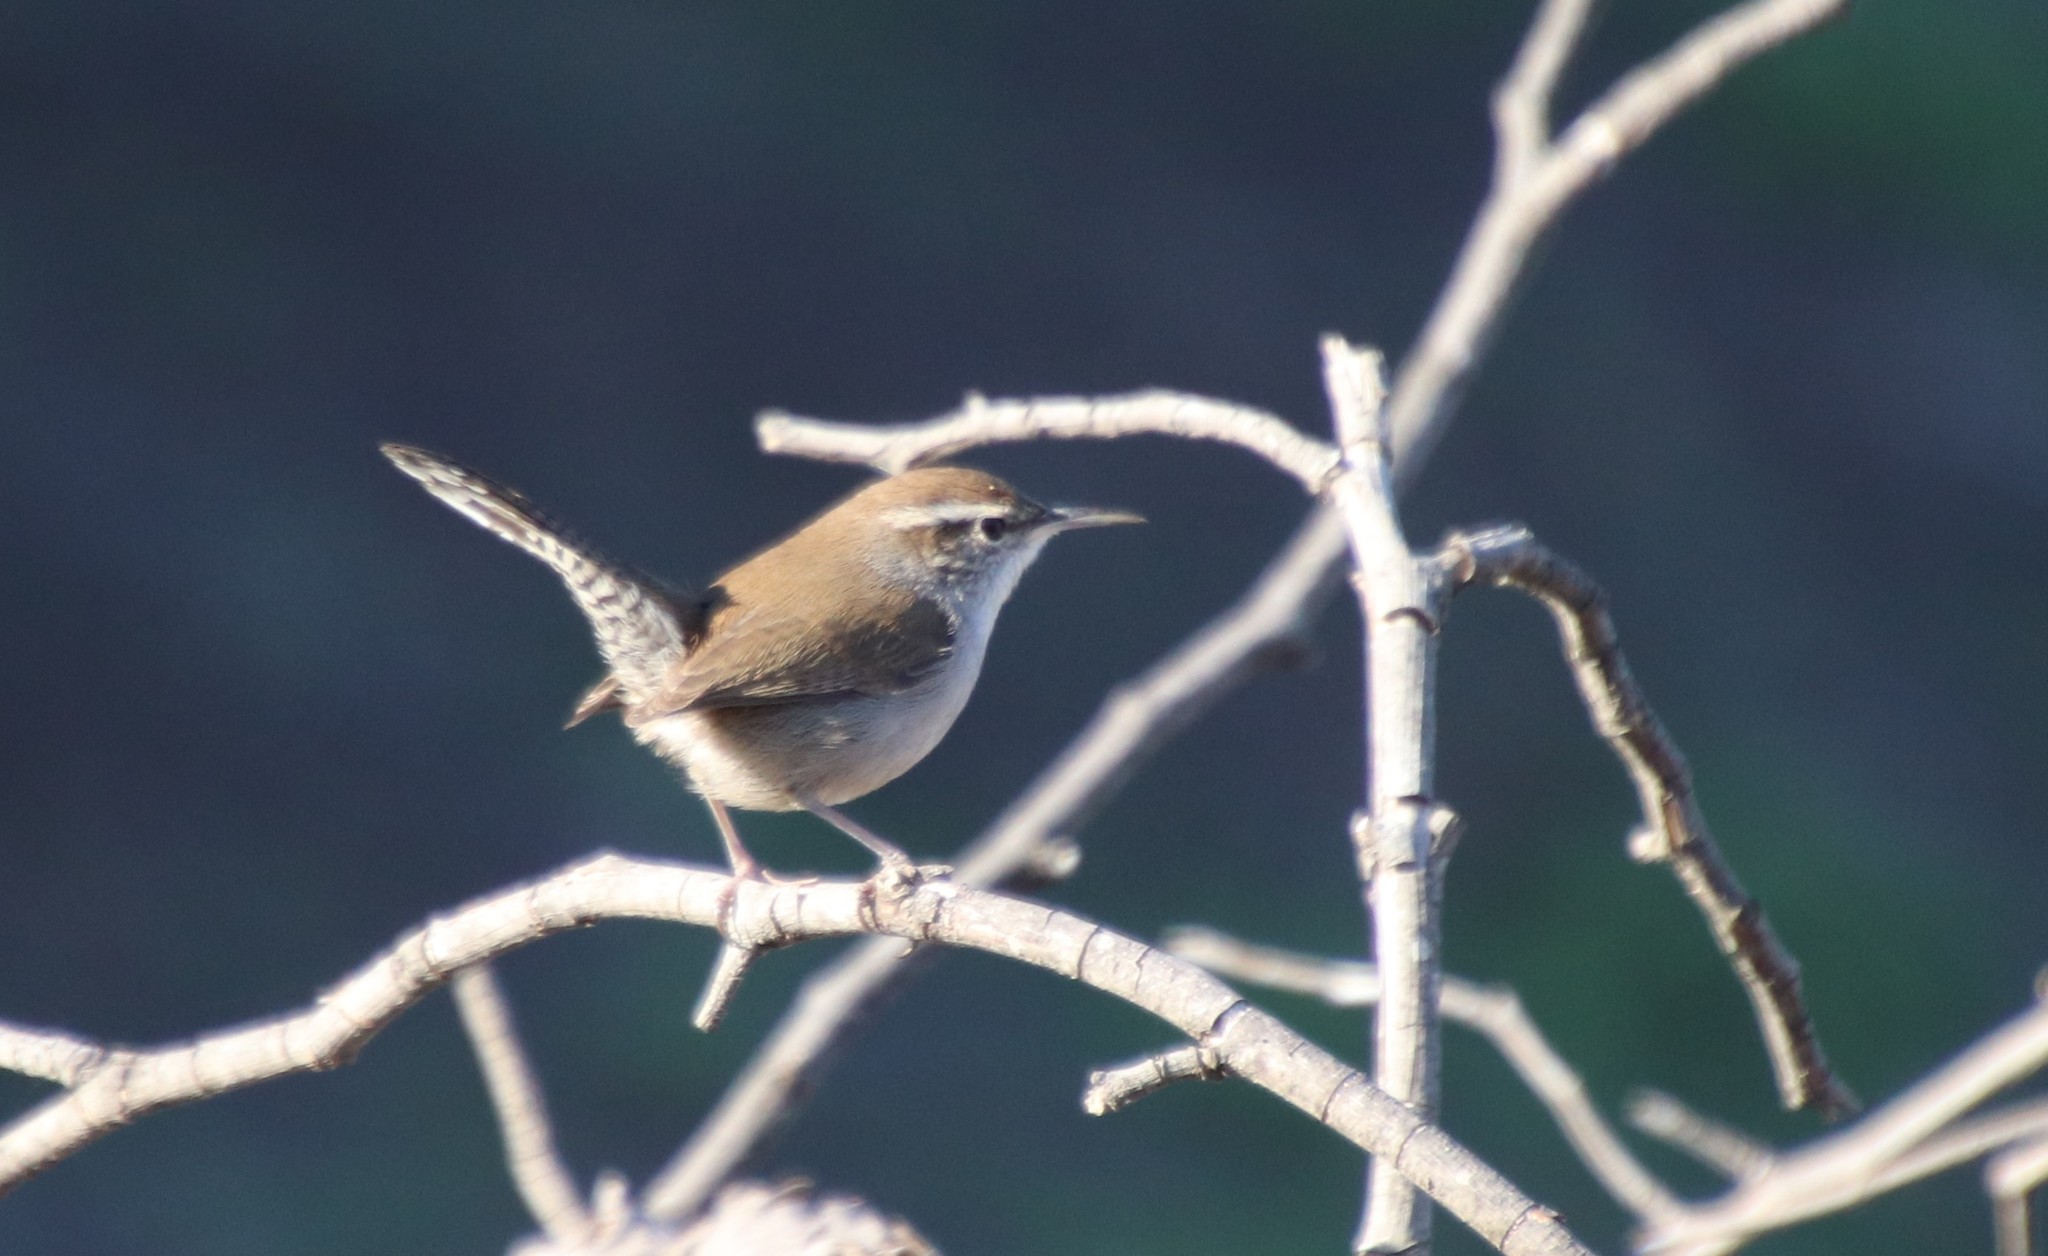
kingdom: Animalia
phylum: Chordata
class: Aves
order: Passeriformes
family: Troglodytidae
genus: Thryomanes
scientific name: Thryomanes bewickii
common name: Bewick's wren
